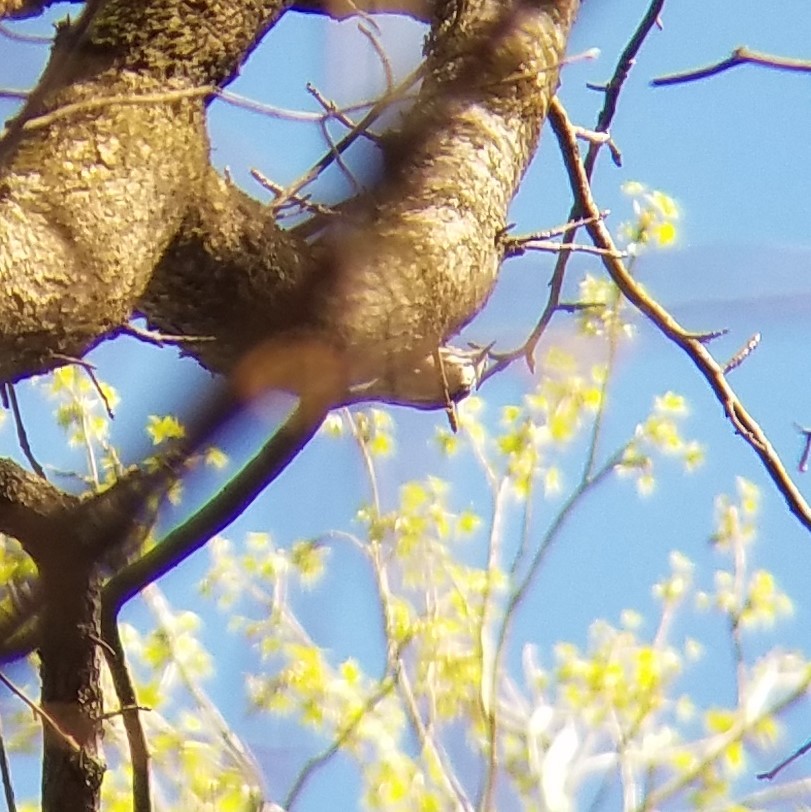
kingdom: Animalia
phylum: Chordata
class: Aves
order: Passeriformes
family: Parulidae
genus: Mniotilta
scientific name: Mniotilta varia
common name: Black-and-white warbler
